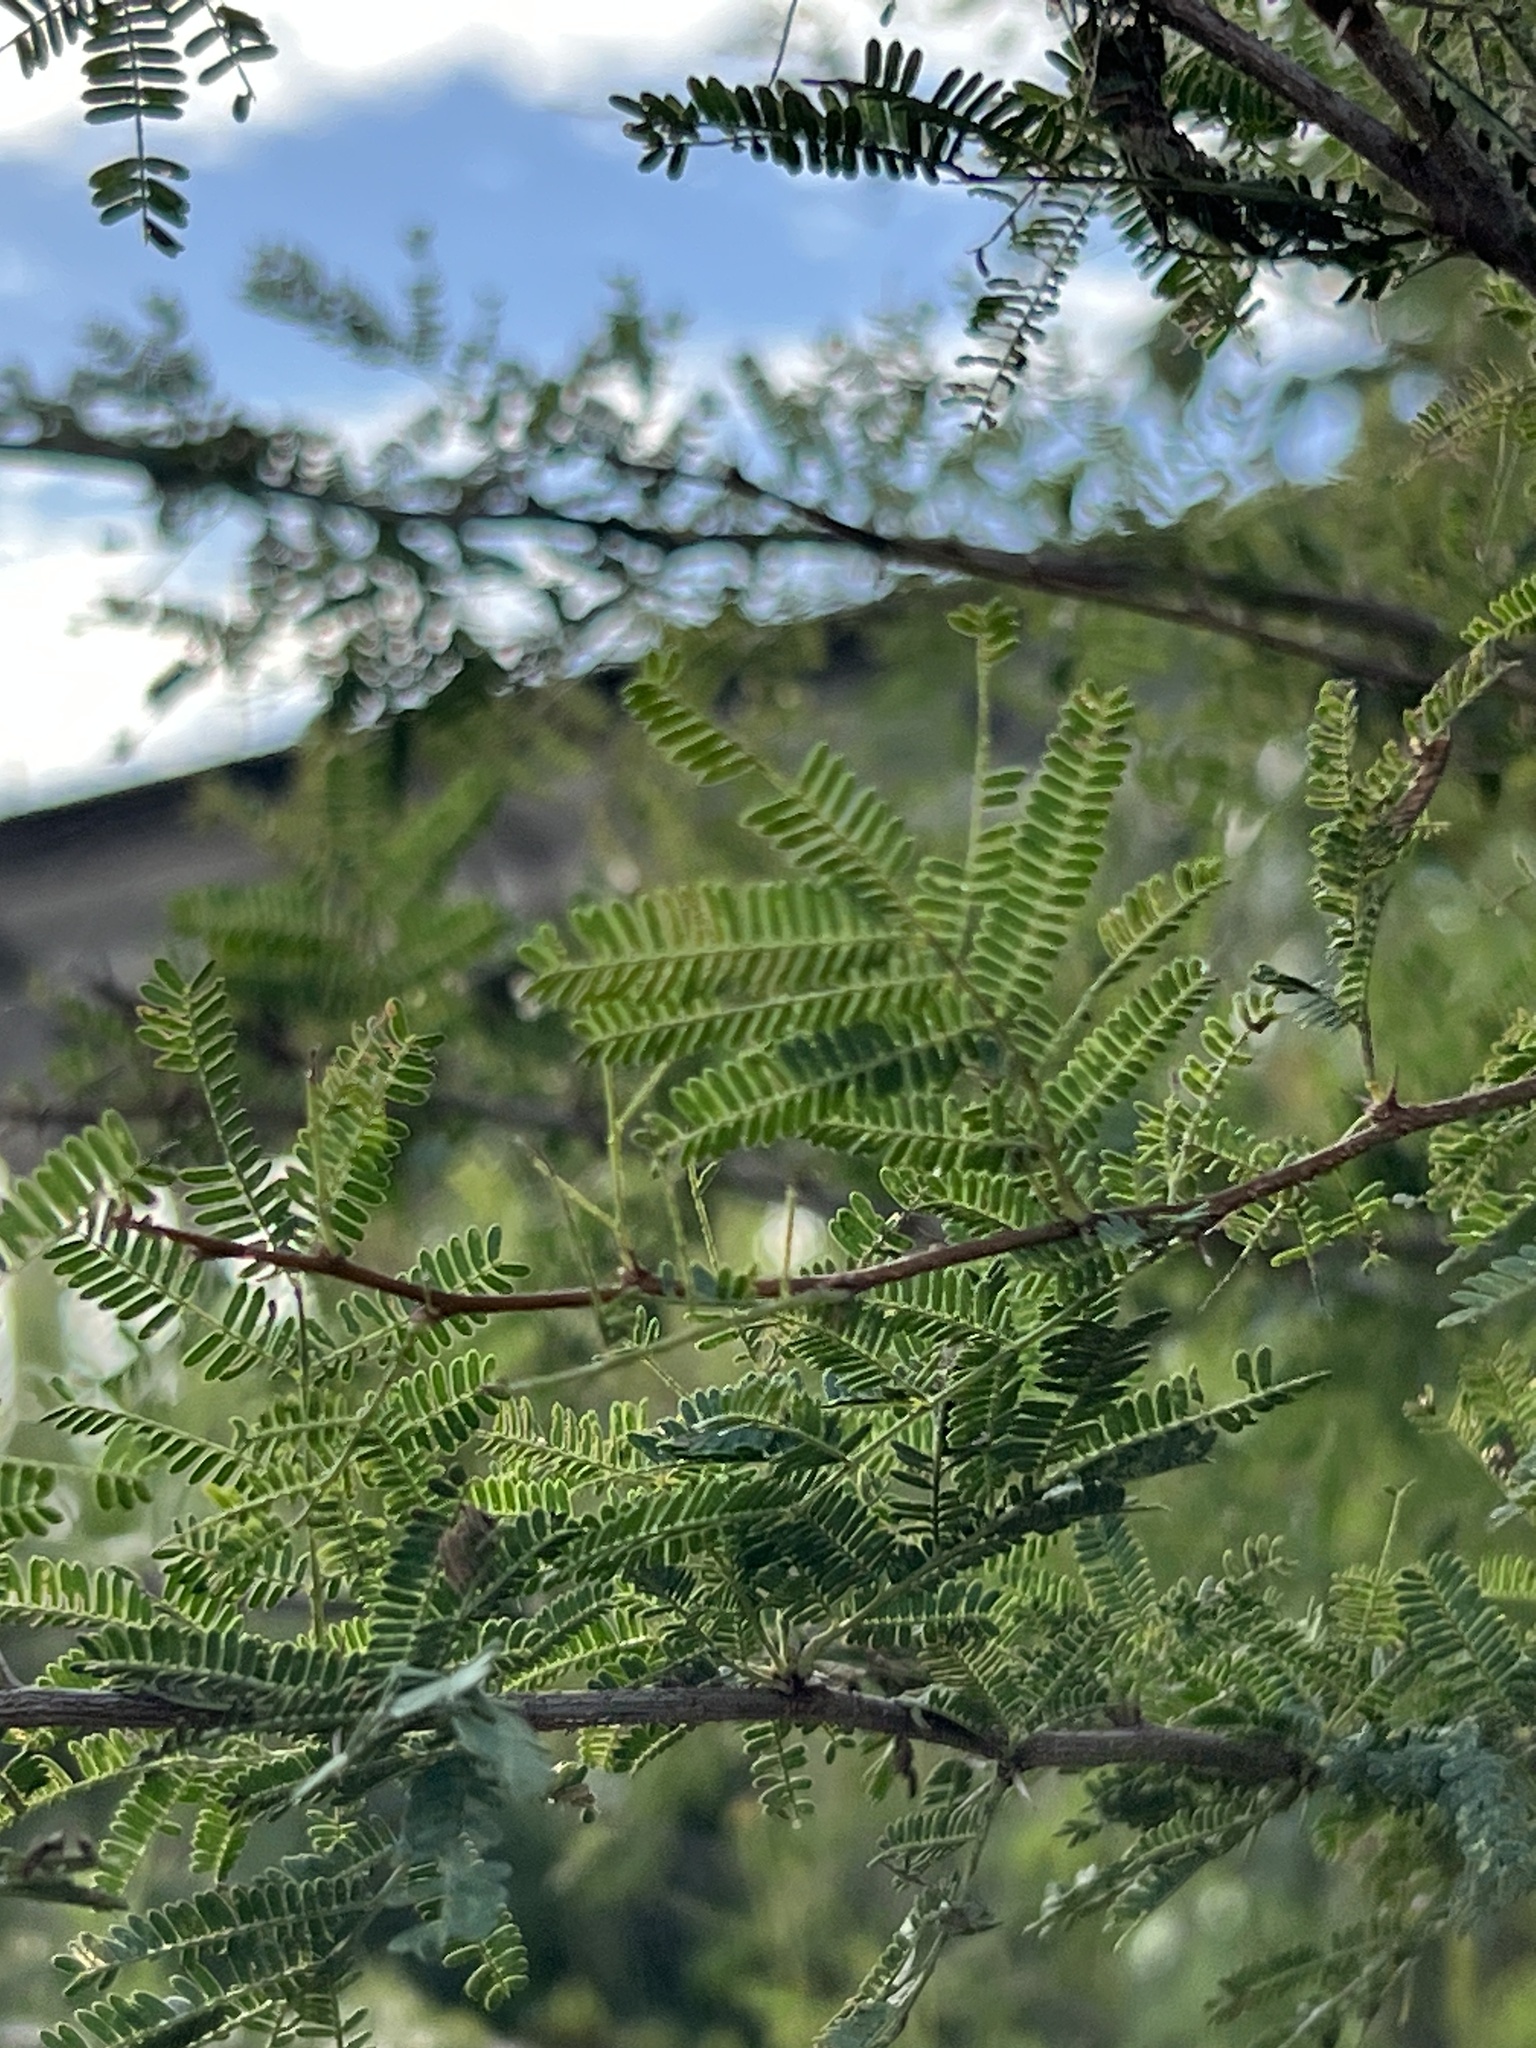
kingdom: Plantae
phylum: Tracheophyta
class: Magnoliopsida
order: Fabales
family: Fabaceae
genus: Vachellia
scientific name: Vachellia farnesiana
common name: Sweet acacia
